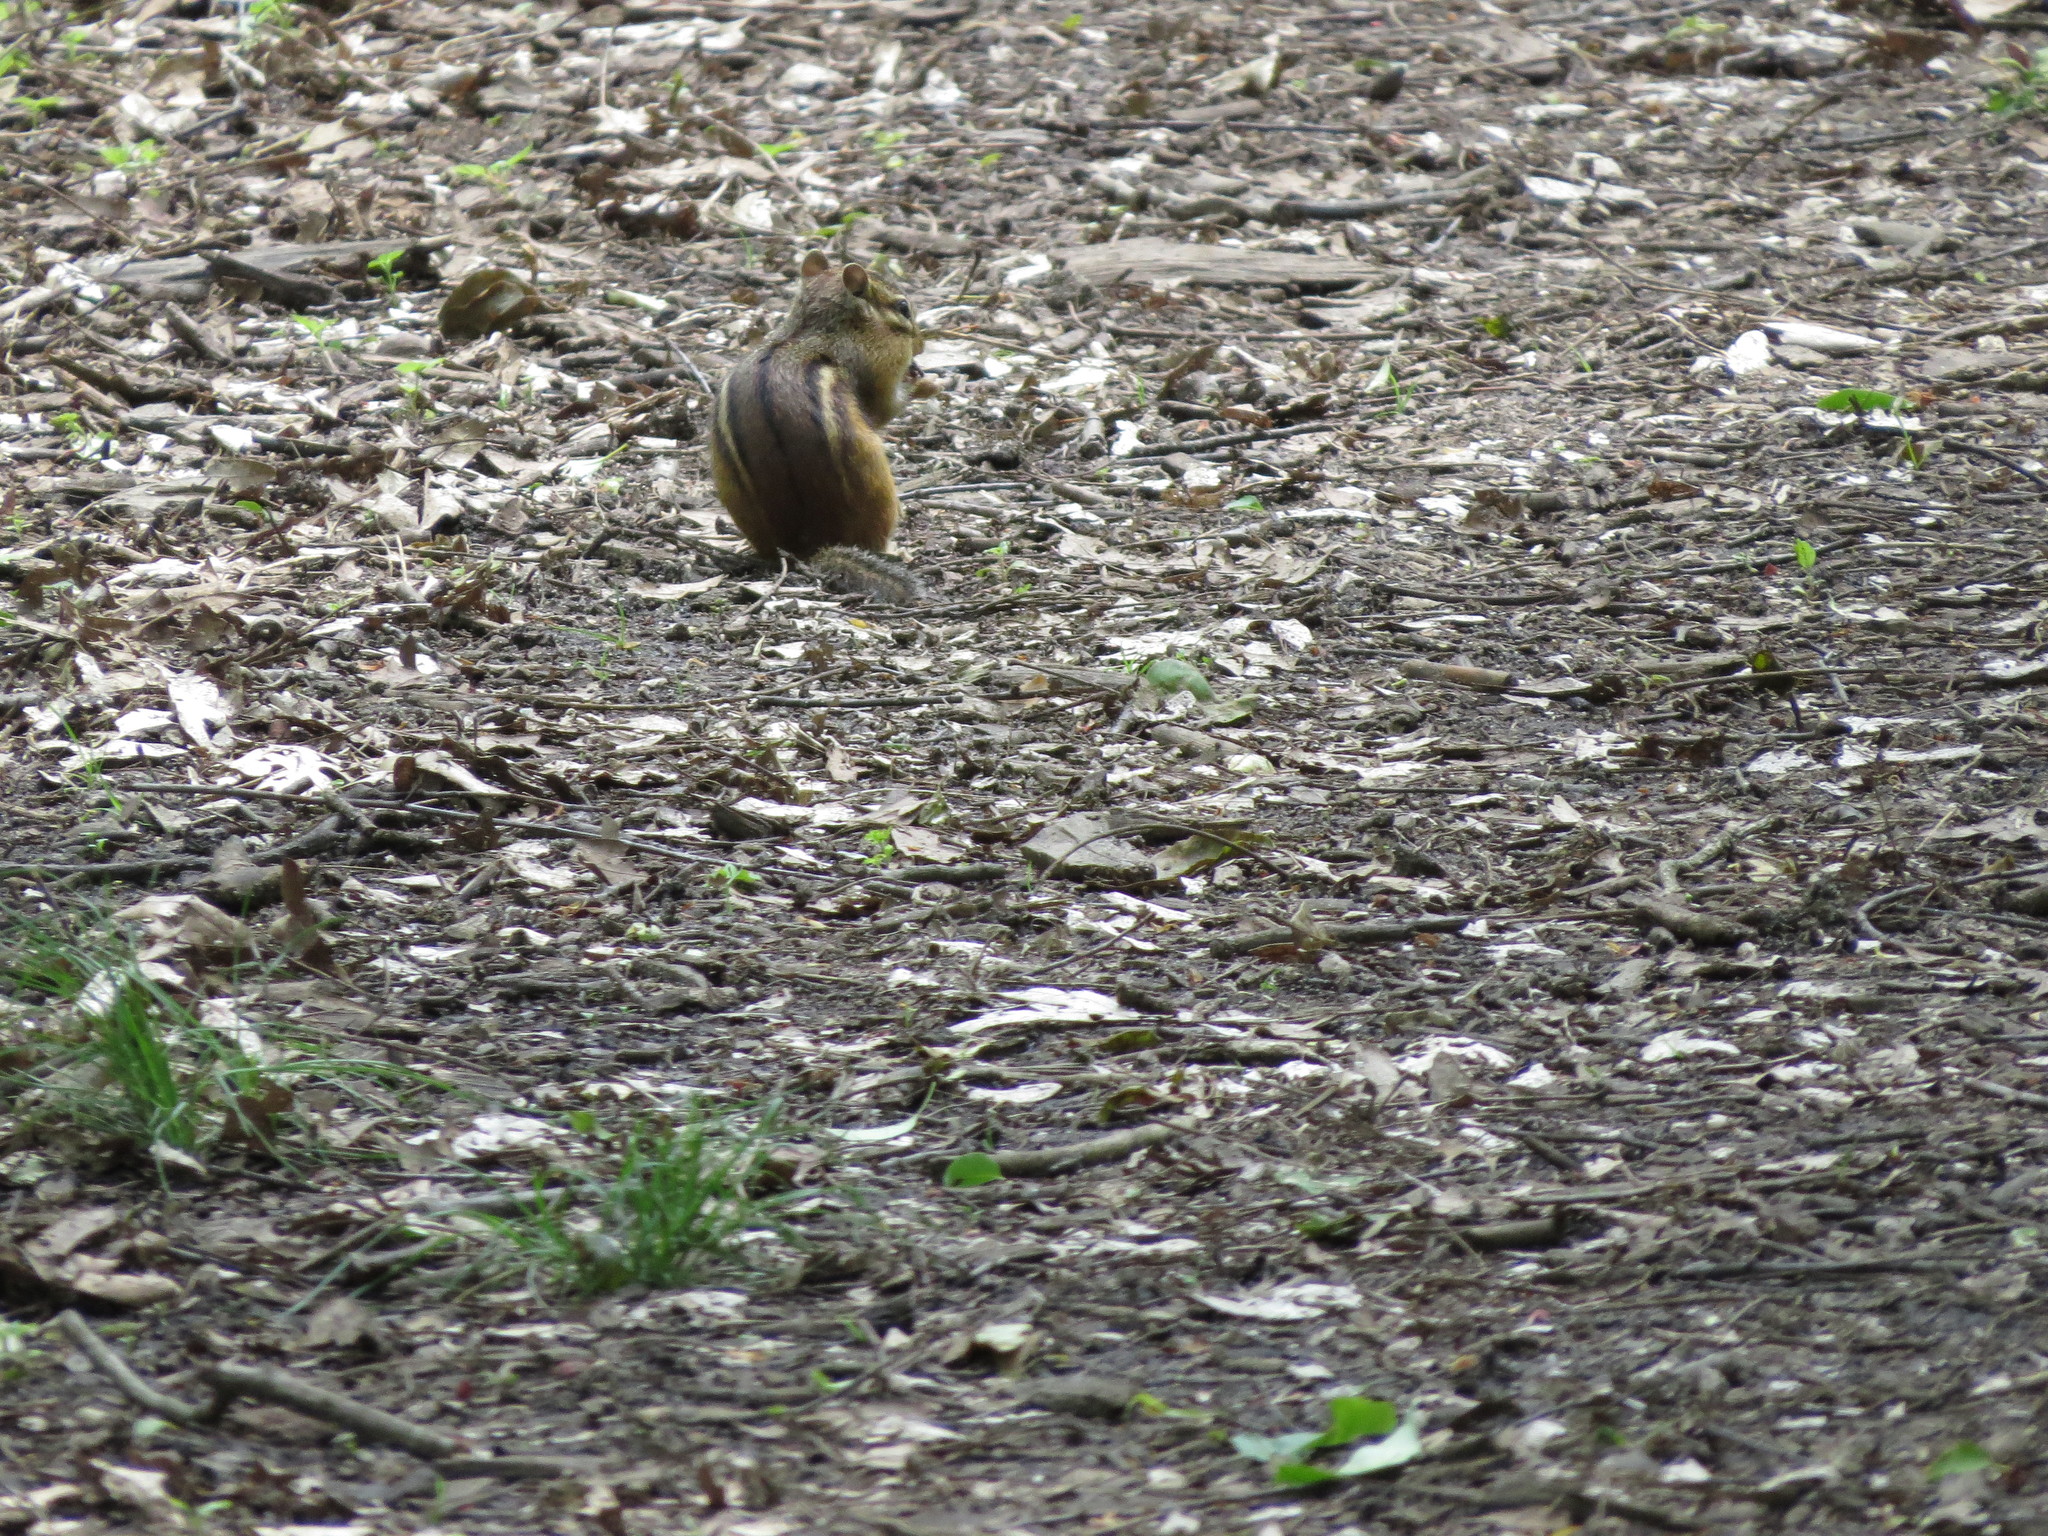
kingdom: Animalia
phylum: Chordata
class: Mammalia
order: Rodentia
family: Sciuridae
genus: Tamias
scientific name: Tamias striatus
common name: Eastern chipmunk
